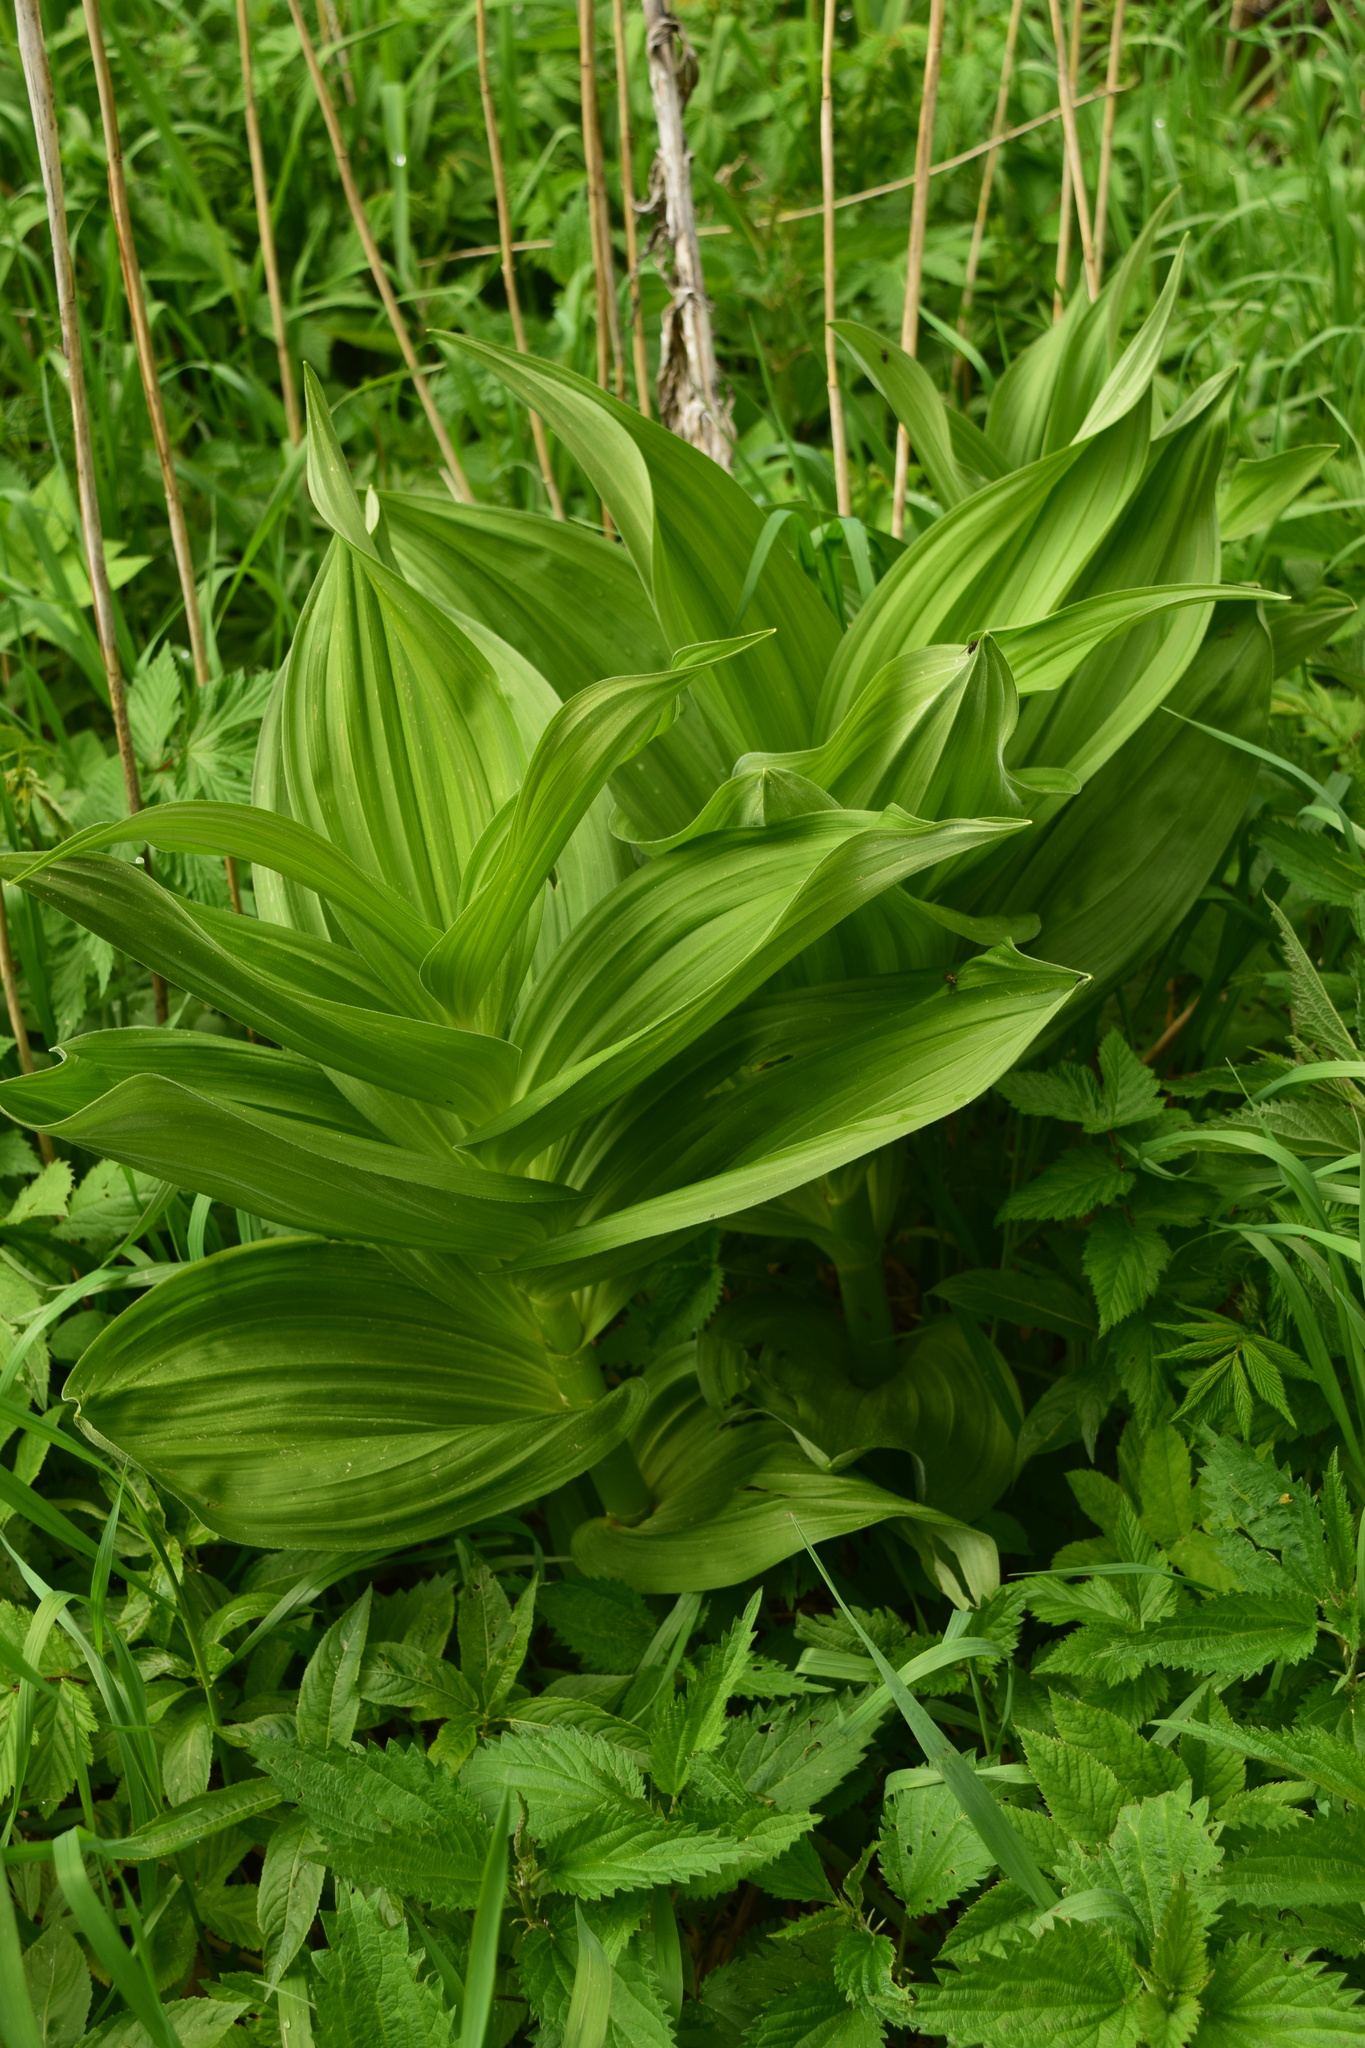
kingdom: Plantae
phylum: Tracheophyta
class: Liliopsida
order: Liliales
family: Melanthiaceae
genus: Veratrum
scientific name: Veratrum lobelianum
